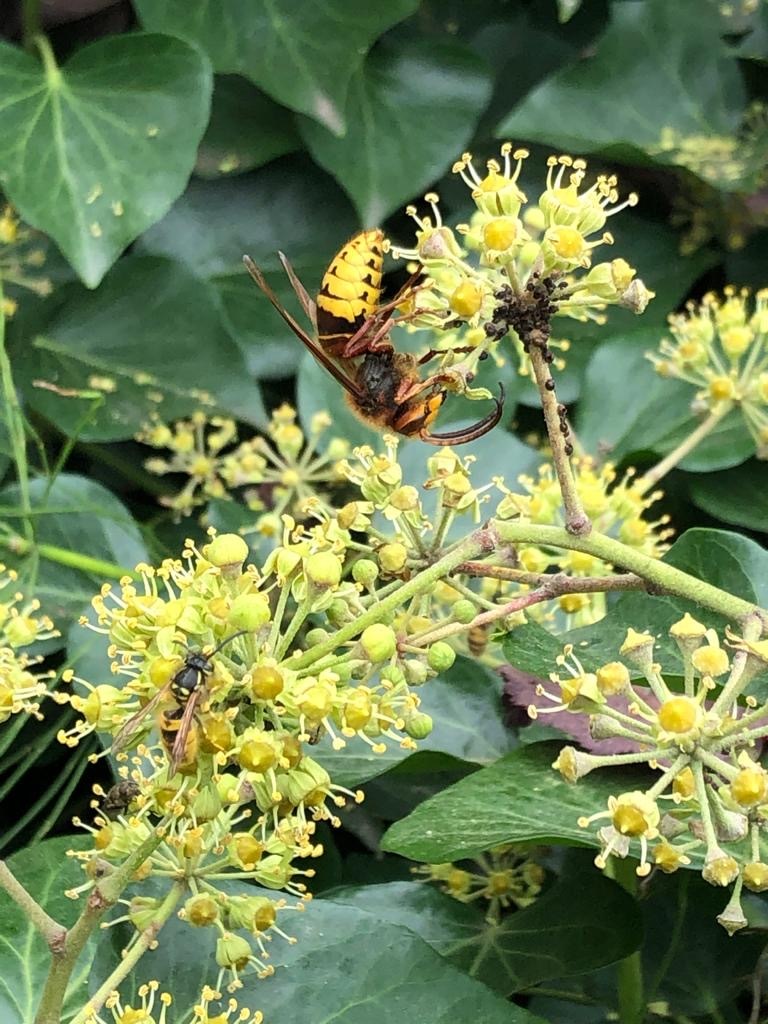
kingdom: Animalia
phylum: Arthropoda
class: Insecta
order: Hymenoptera
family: Vespidae
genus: Vespa
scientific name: Vespa crabro
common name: Hornet
